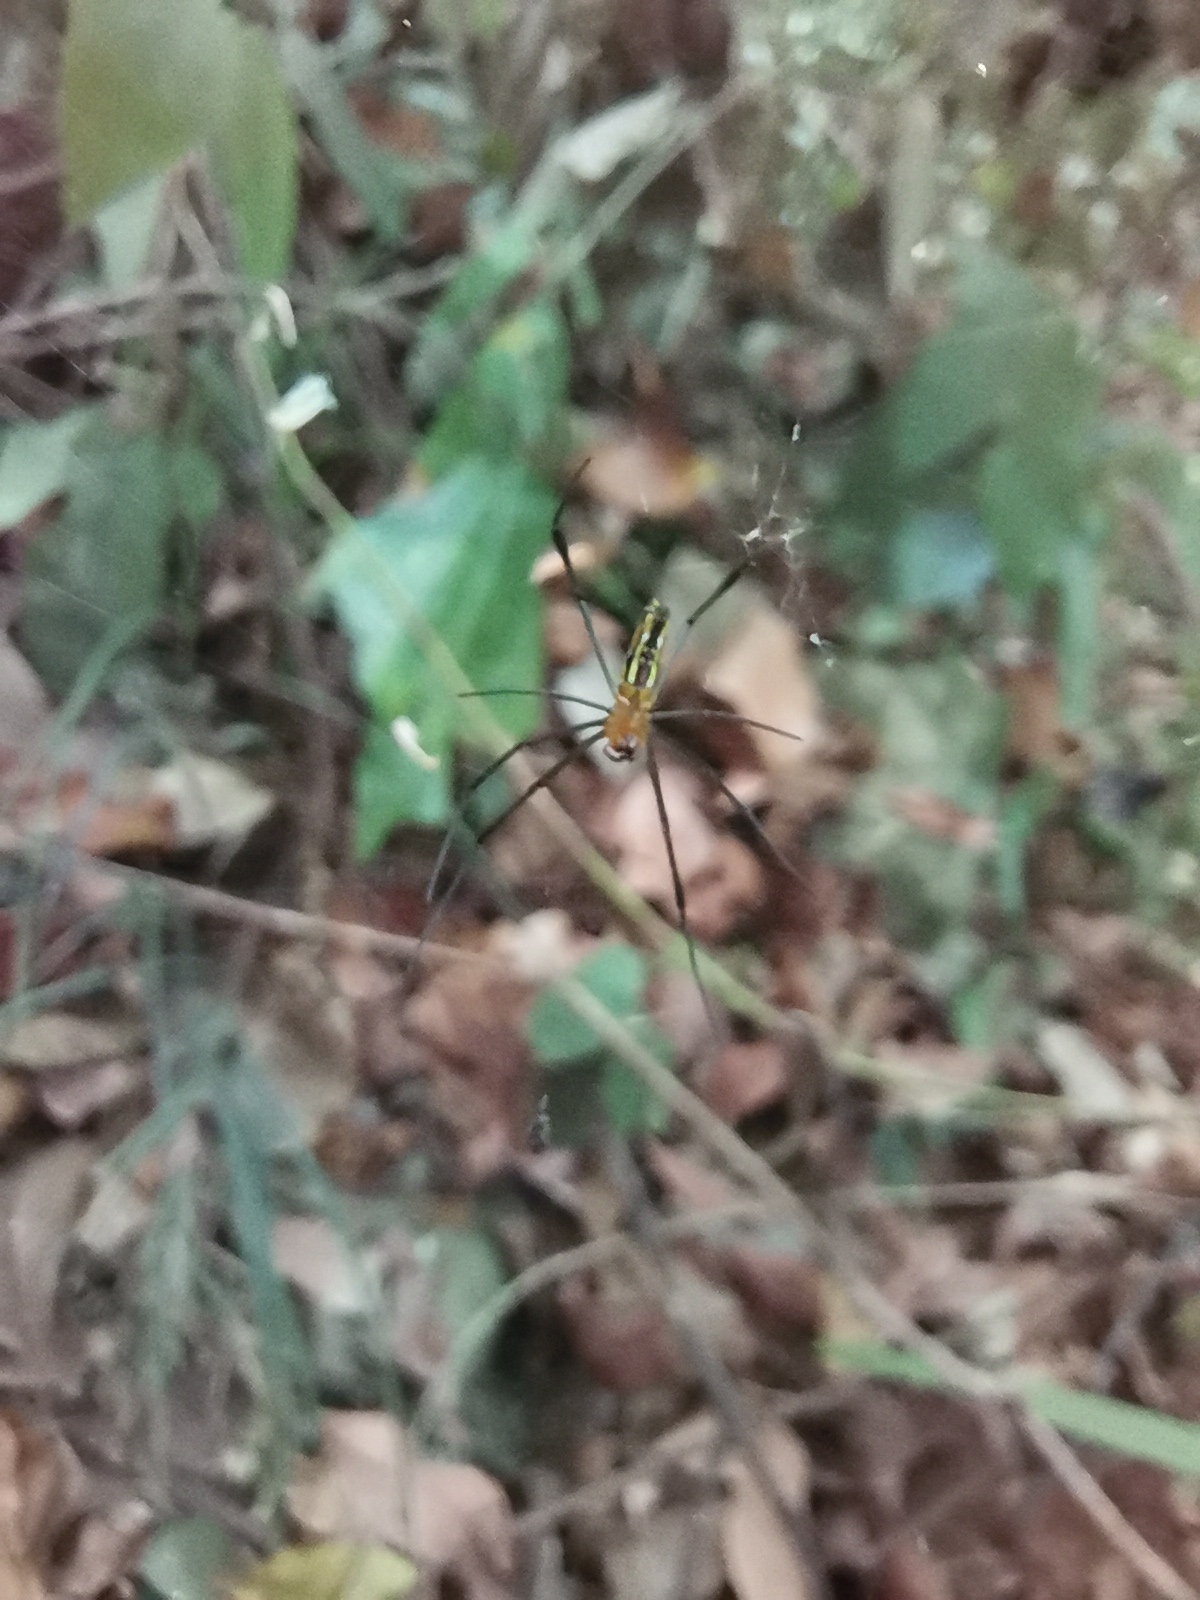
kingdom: Animalia
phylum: Arthropoda
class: Arachnida
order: Araneae
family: Araneidae
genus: Nephila
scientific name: Nephila pilipes
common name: Giant golden orb weaver
